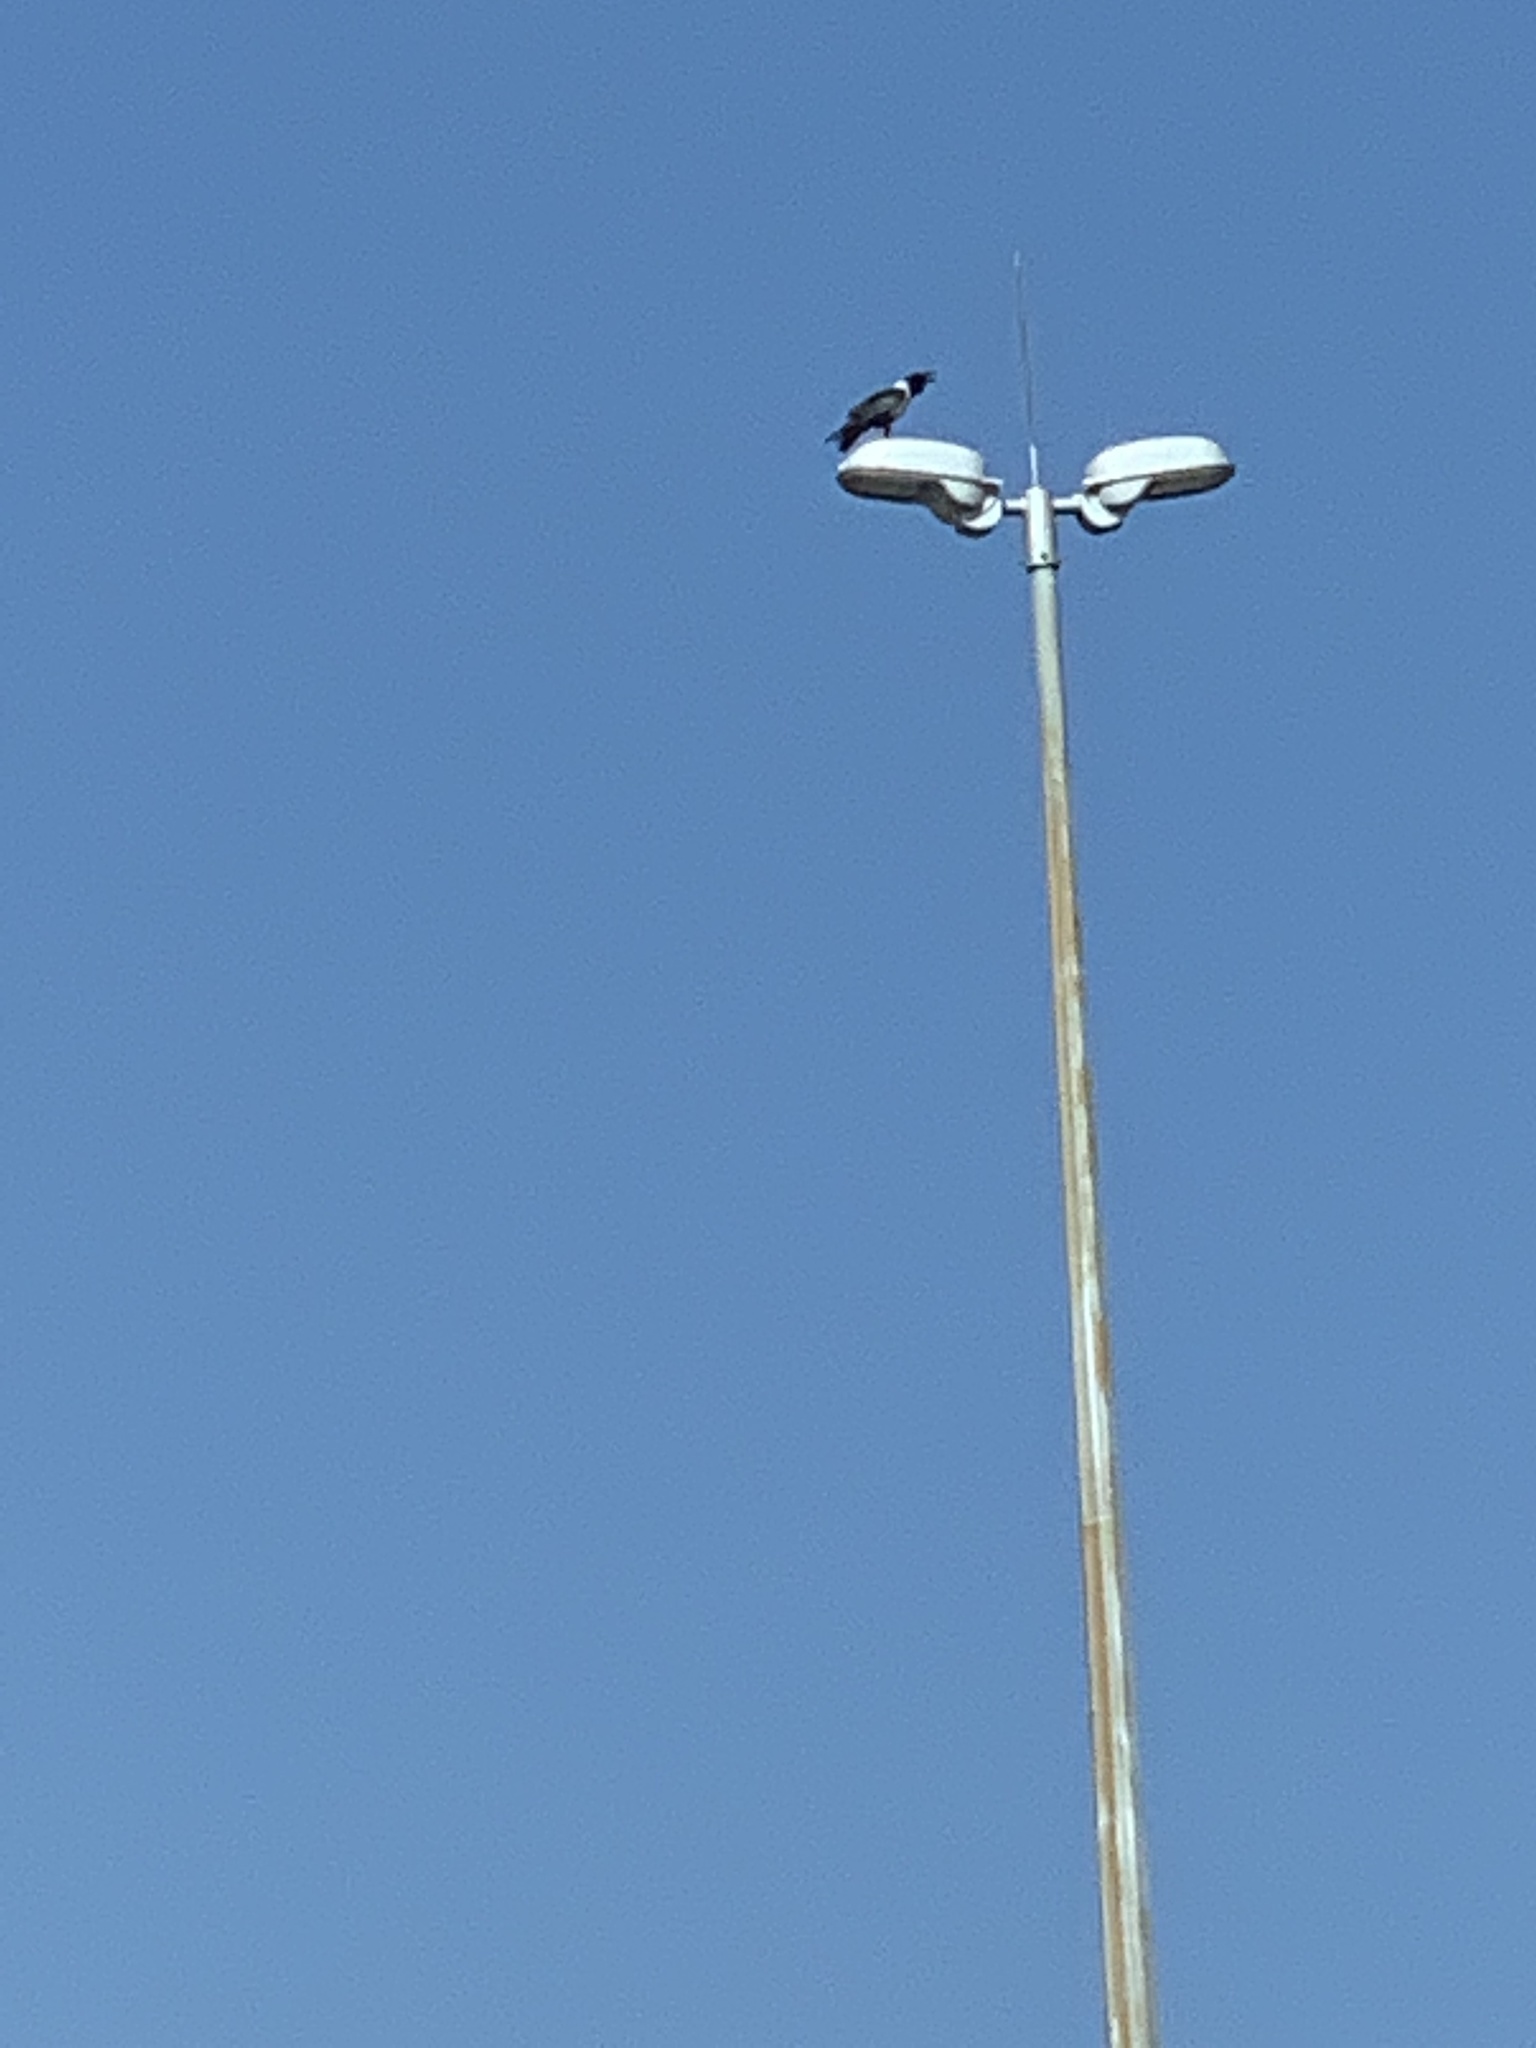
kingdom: Animalia
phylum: Chordata
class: Aves
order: Passeriformes
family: Corvidae
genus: Corvus
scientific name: Corvus albus
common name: Pied crow
